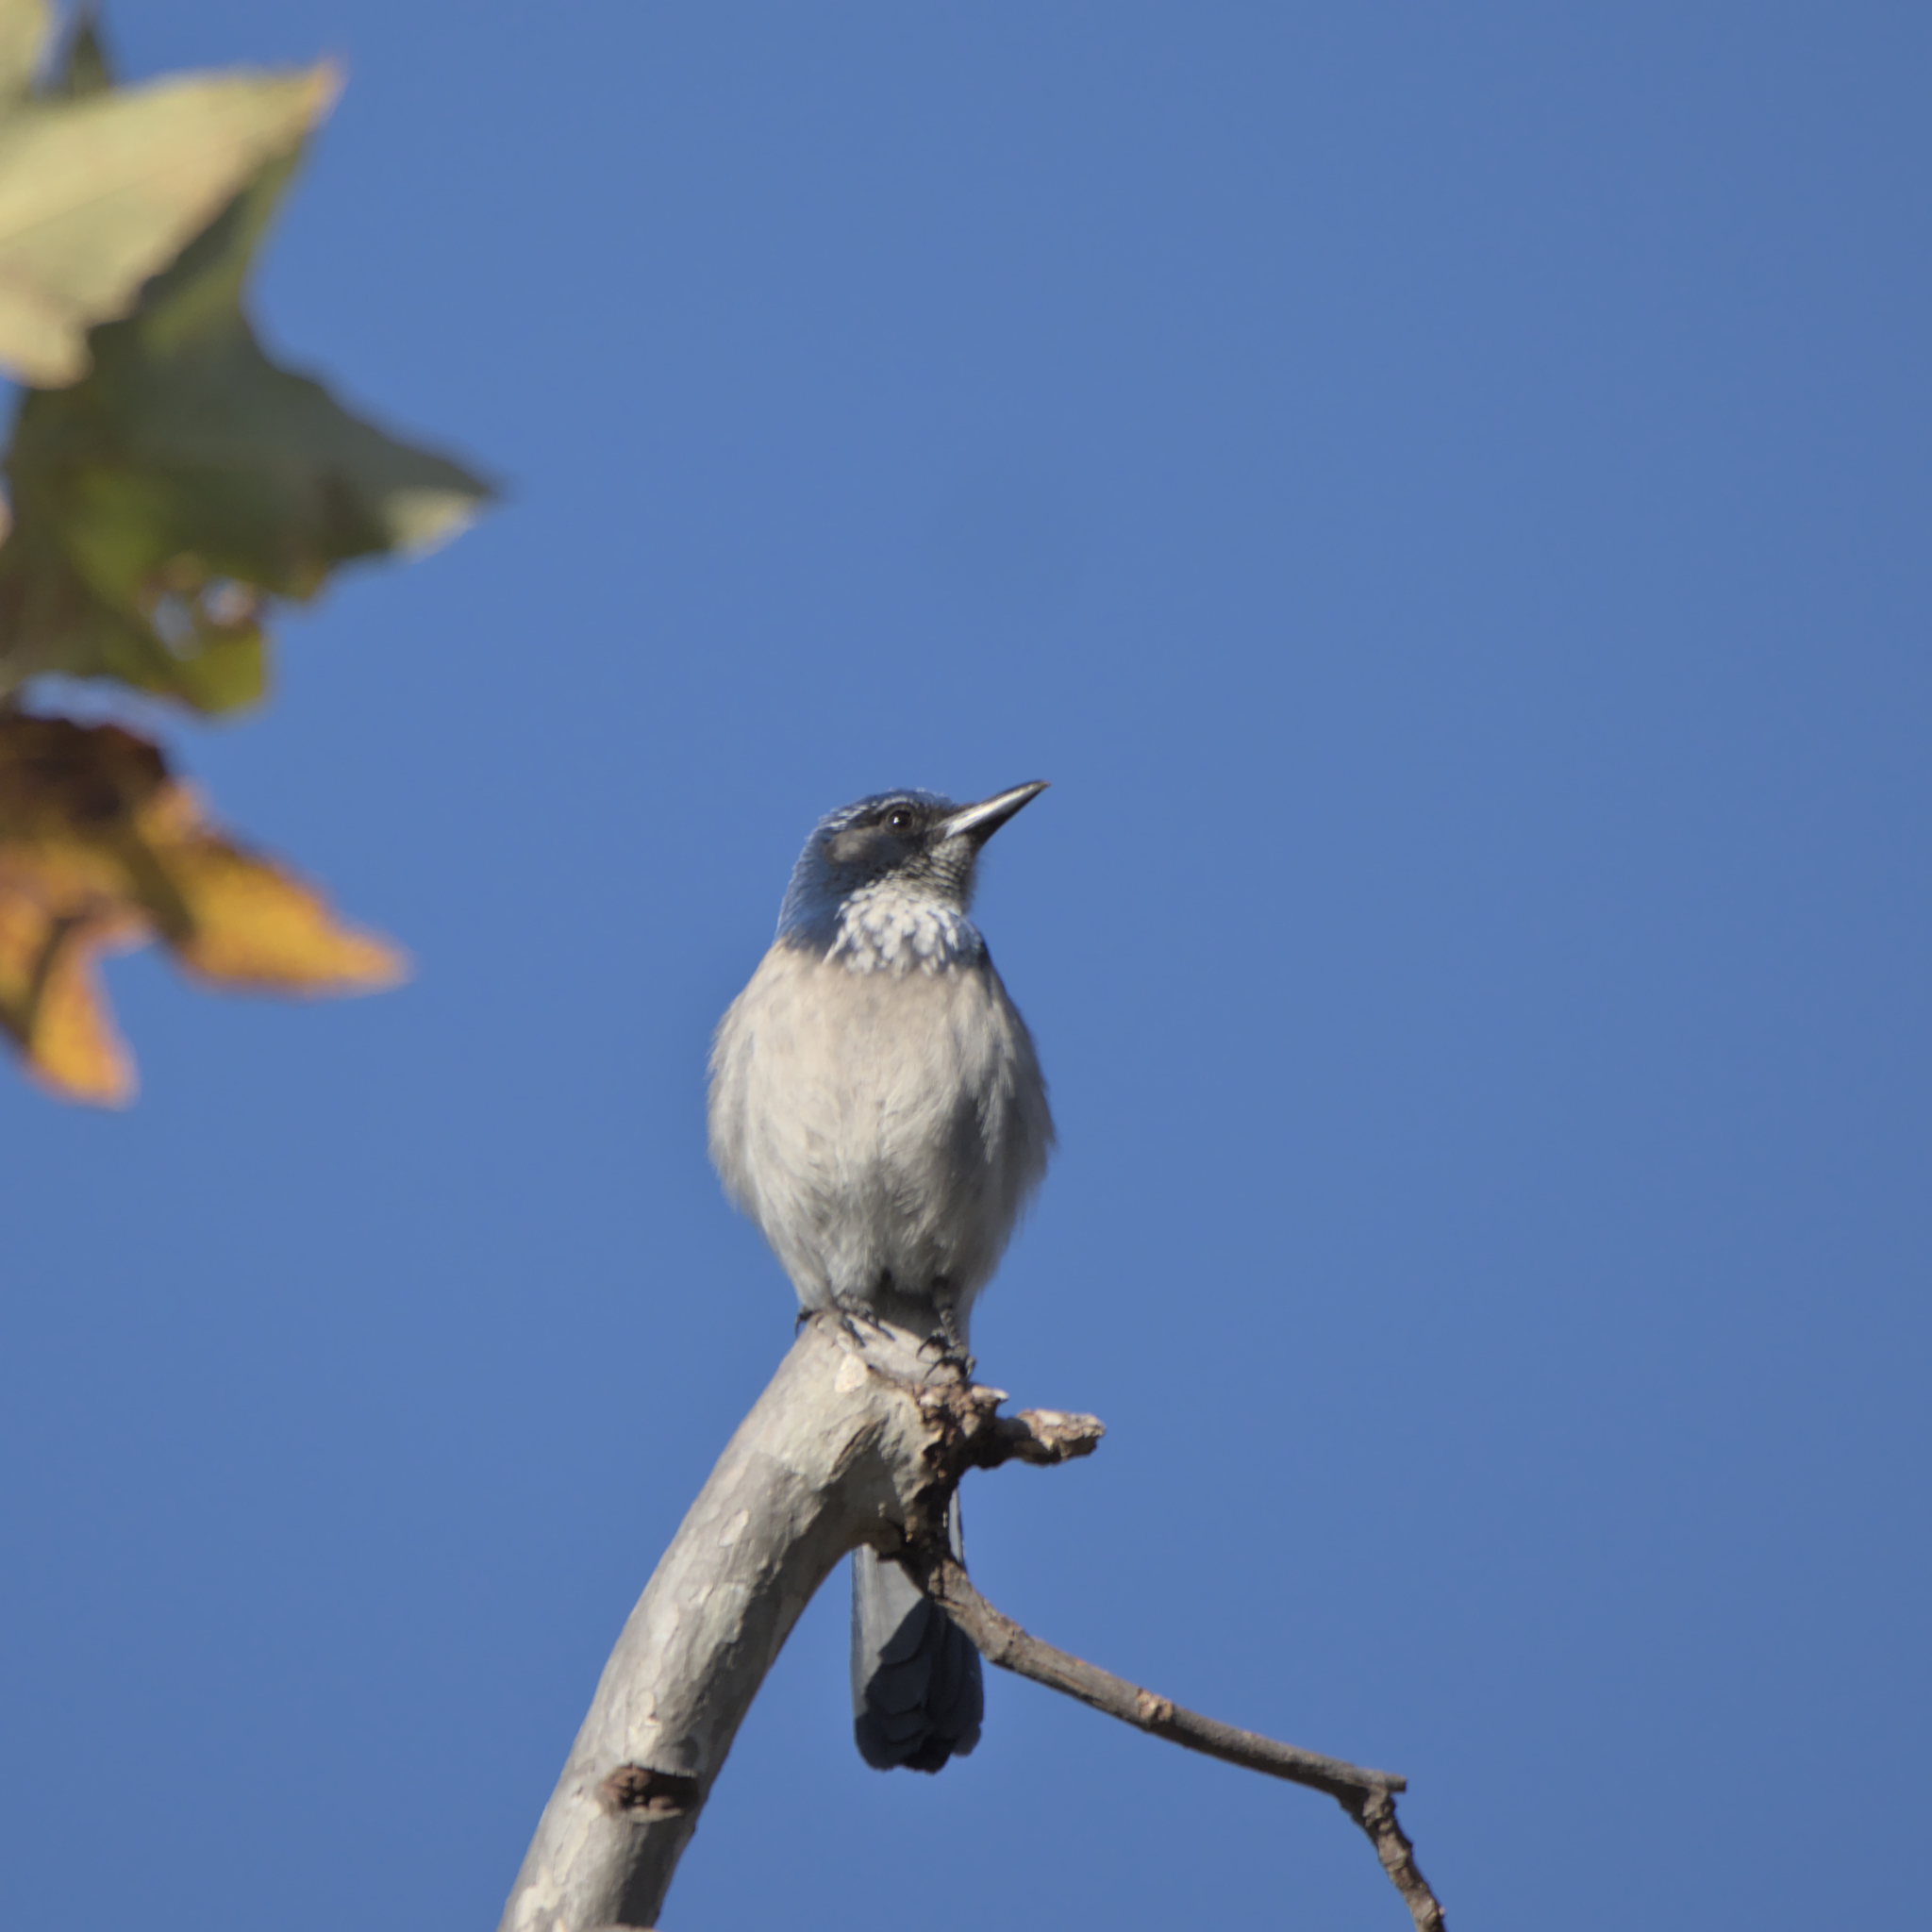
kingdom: Animalia
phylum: Chordata
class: Aves
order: Passeriformes
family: Corvidae
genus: Aphelocoma
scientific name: Aphelocoma californica
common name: California scrub-jay
